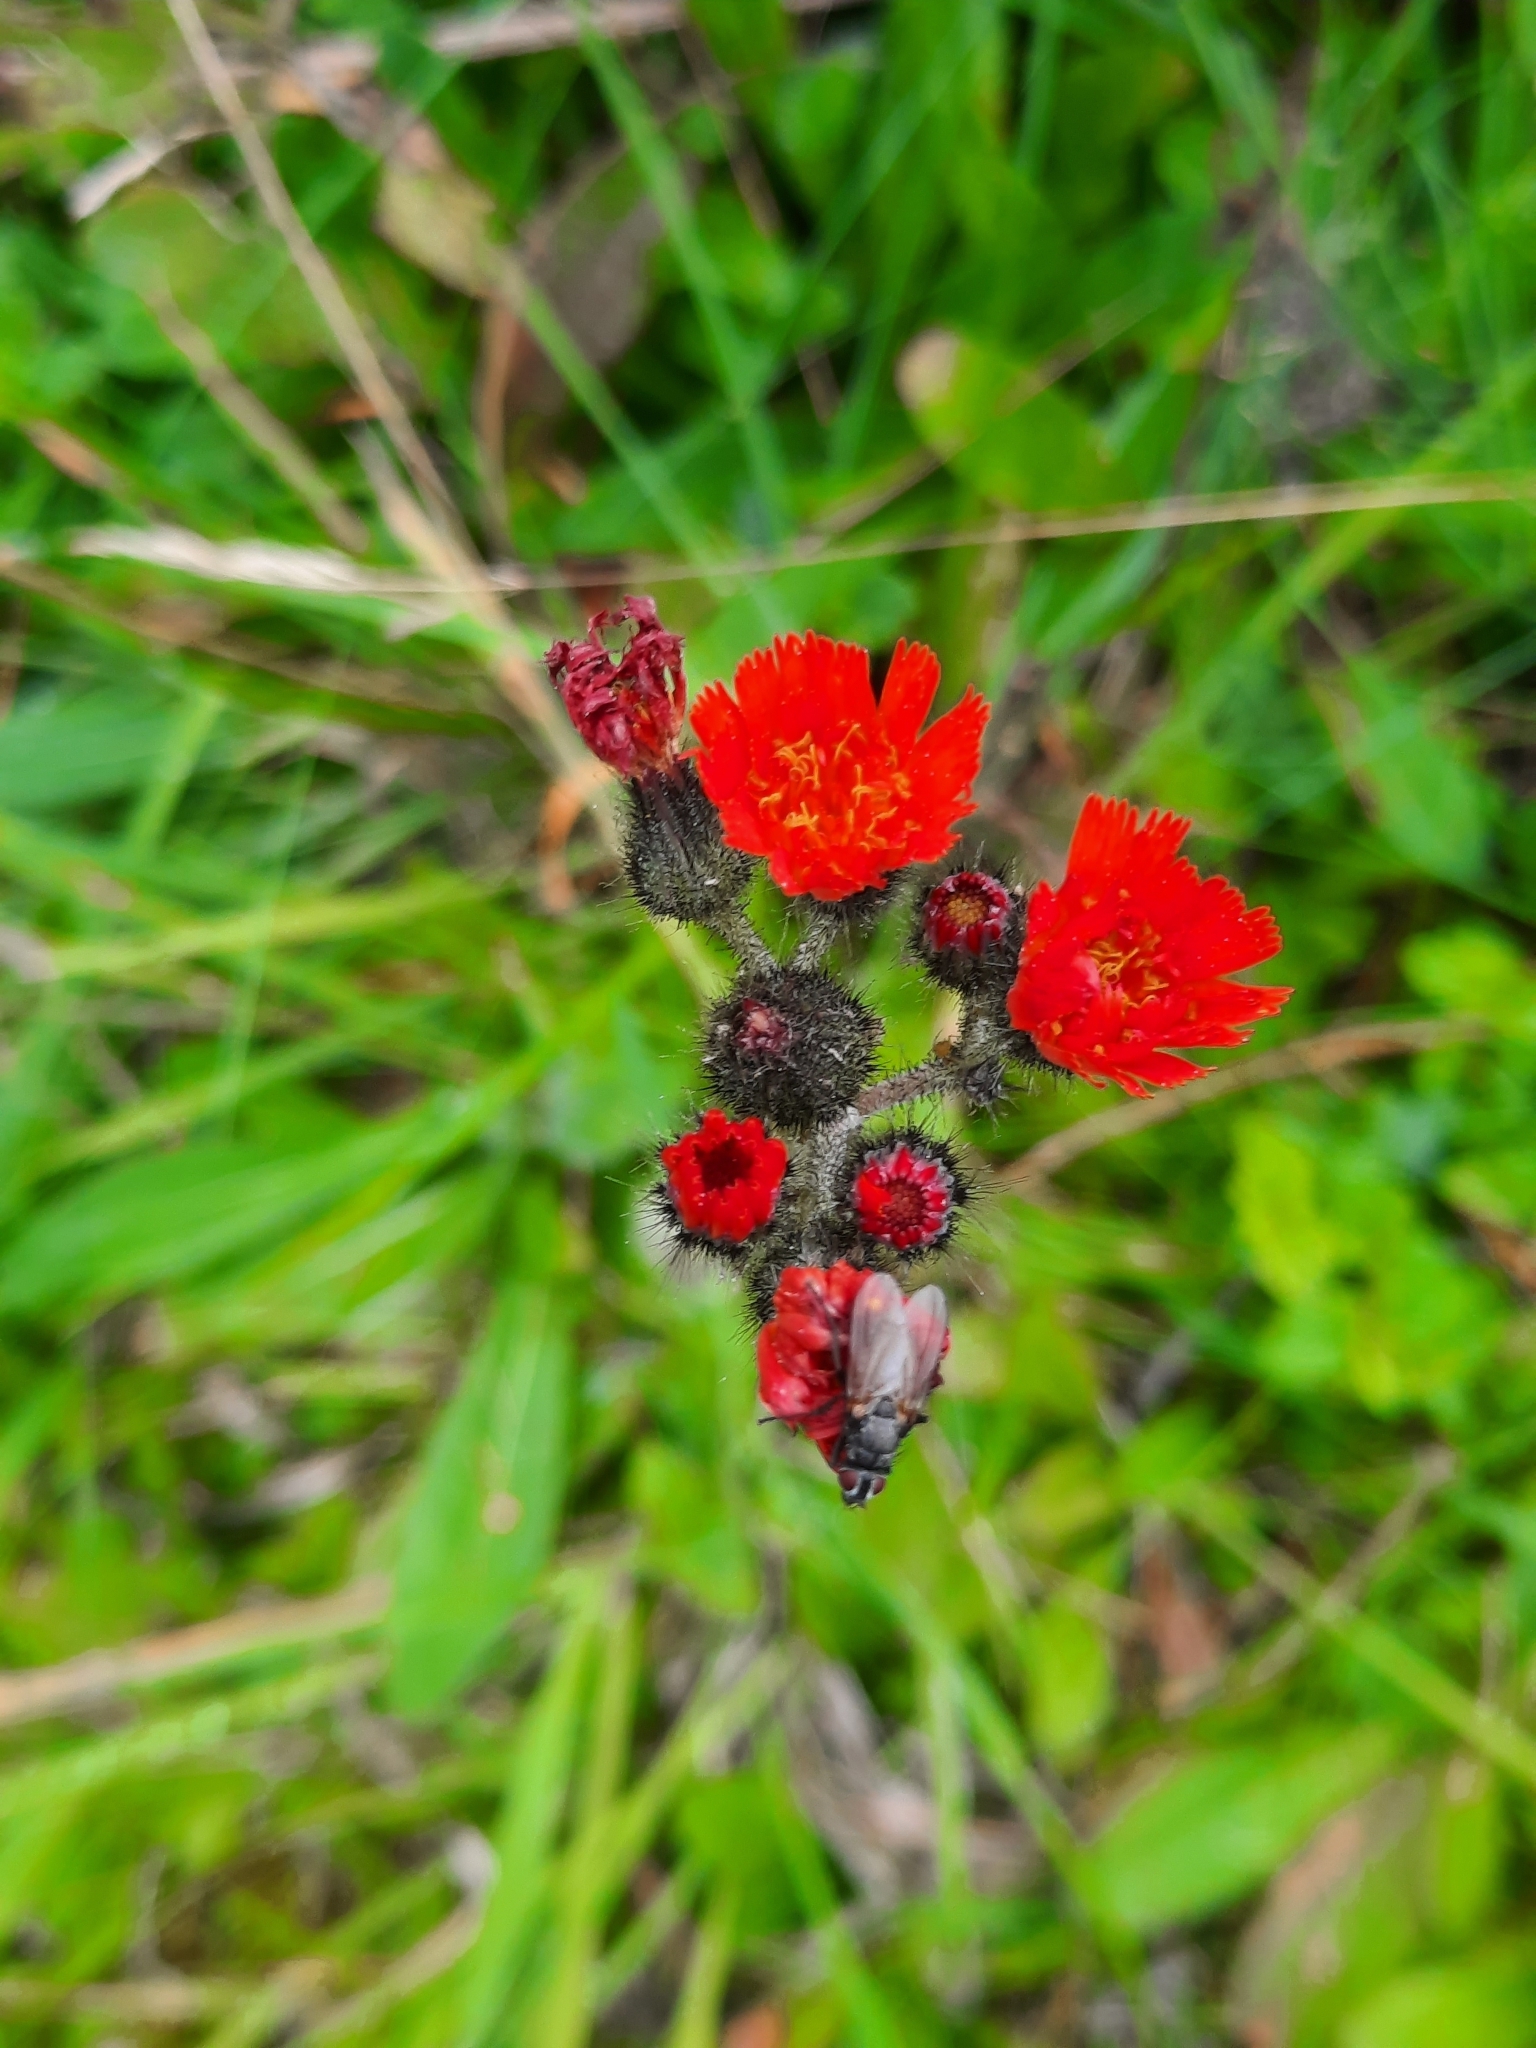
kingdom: Plantae
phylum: Tracheophyta
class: Magnoliopsida
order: Asterales
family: Asteraceae
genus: Pilosella
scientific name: Pilosella aurantiaca
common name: Fox-and-cubs
